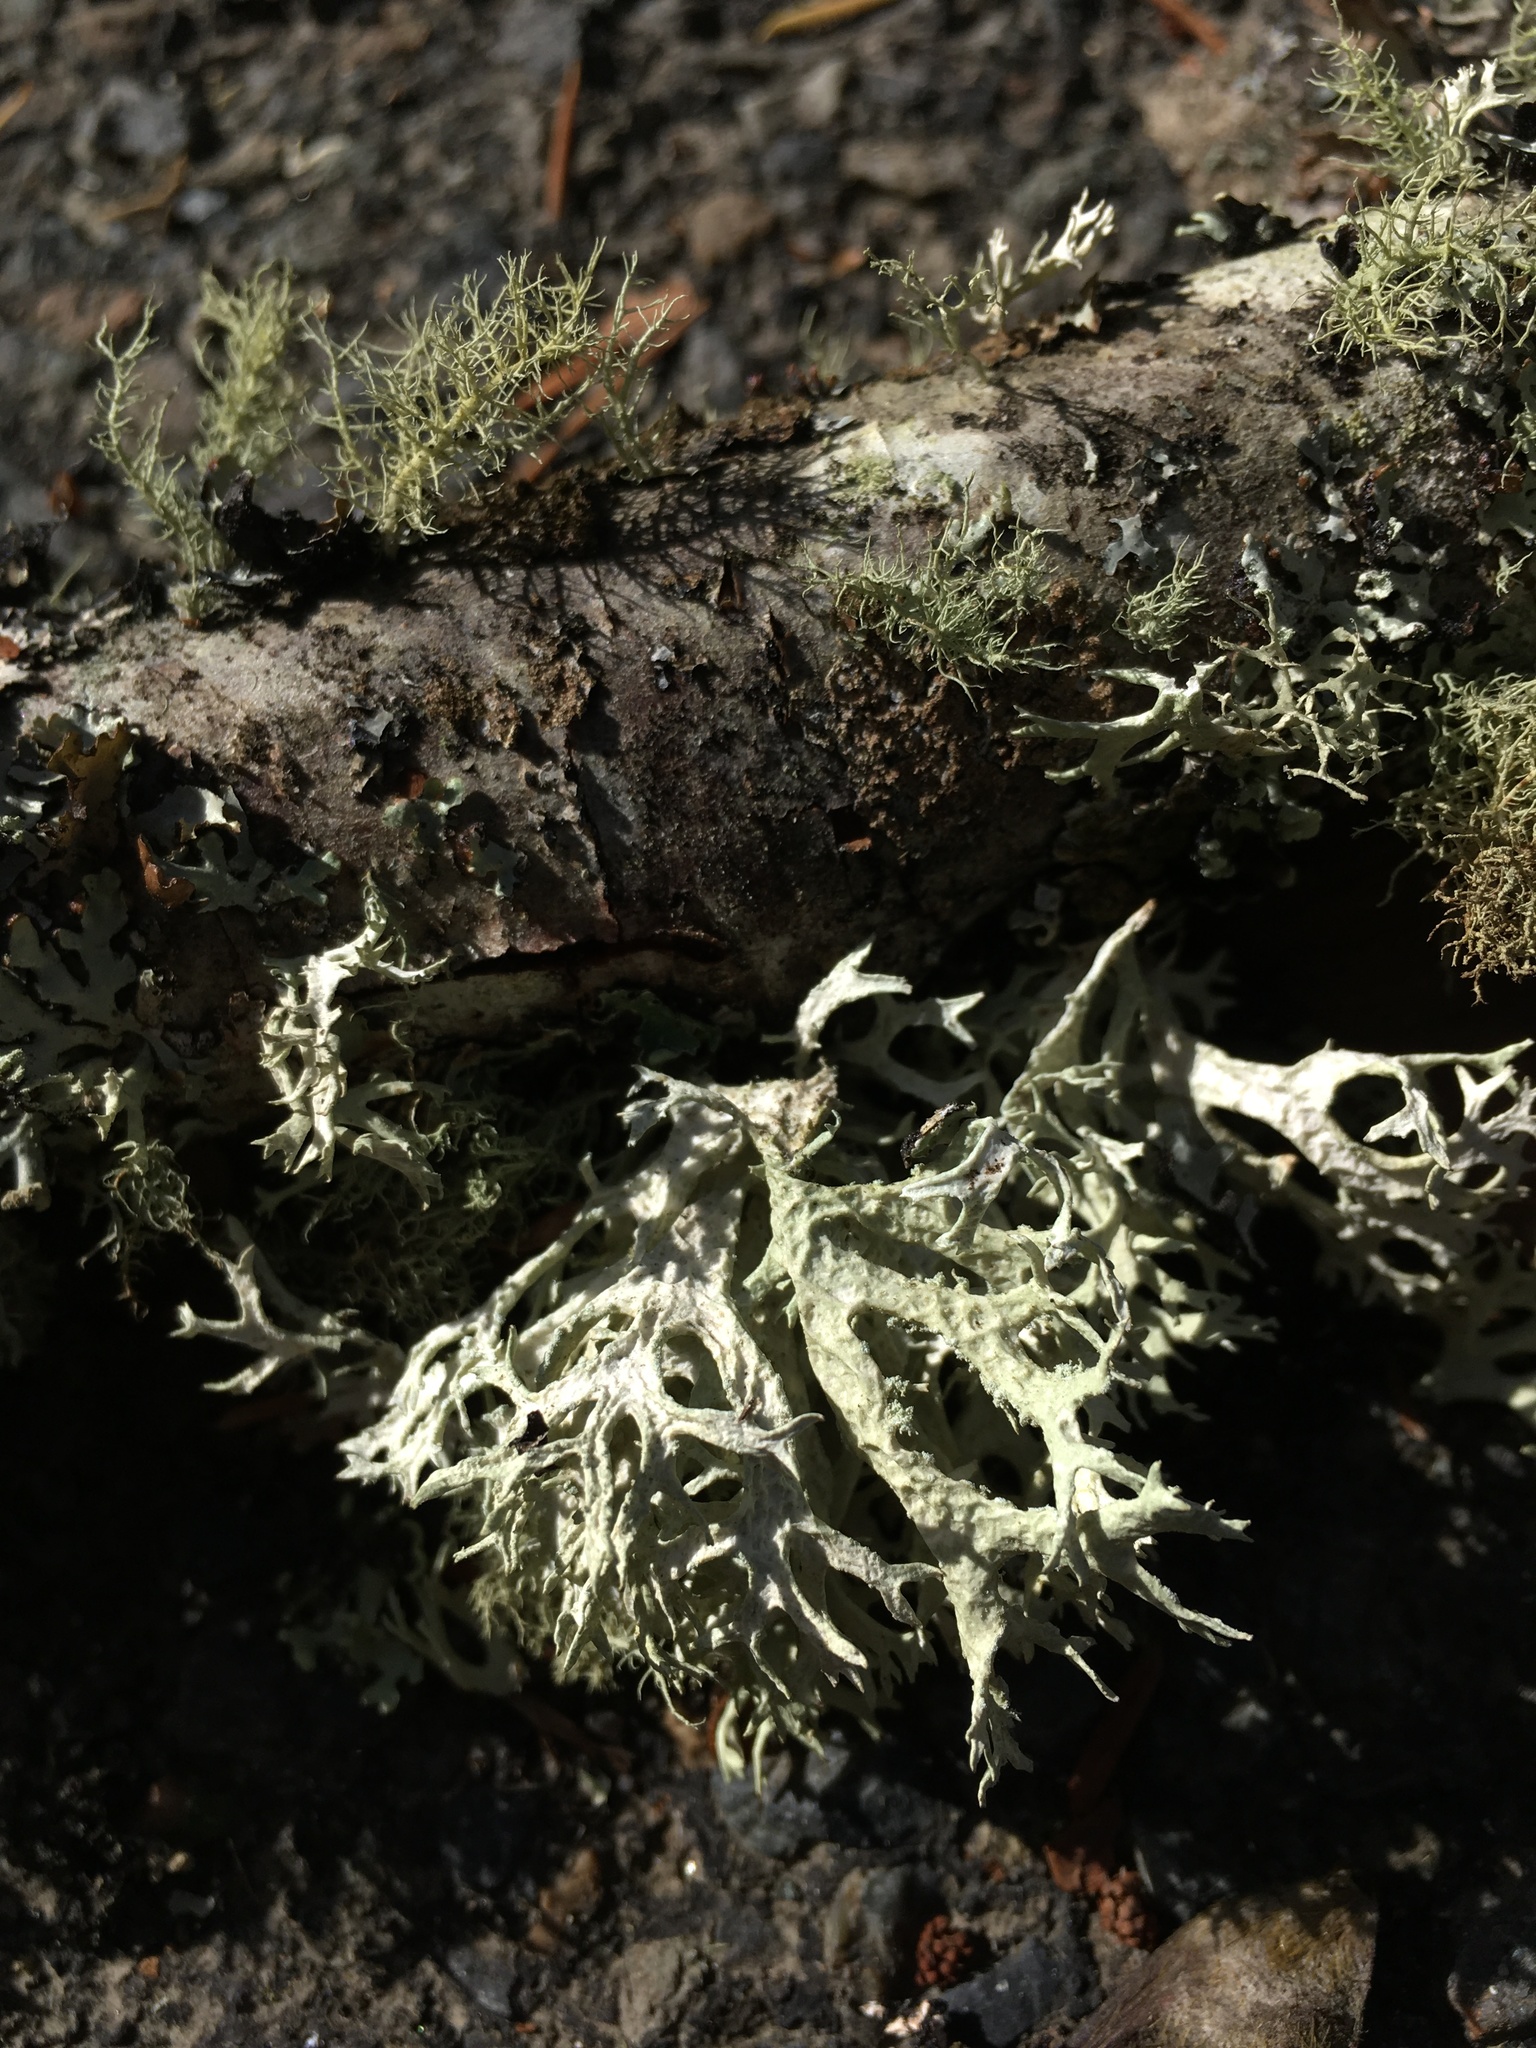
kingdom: Fungi
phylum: Ascomycota
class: Lecanoromycetes
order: Lecanorales
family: Parmeliaceae
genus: Evernia
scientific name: Evernia prunastri
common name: Oak moss
